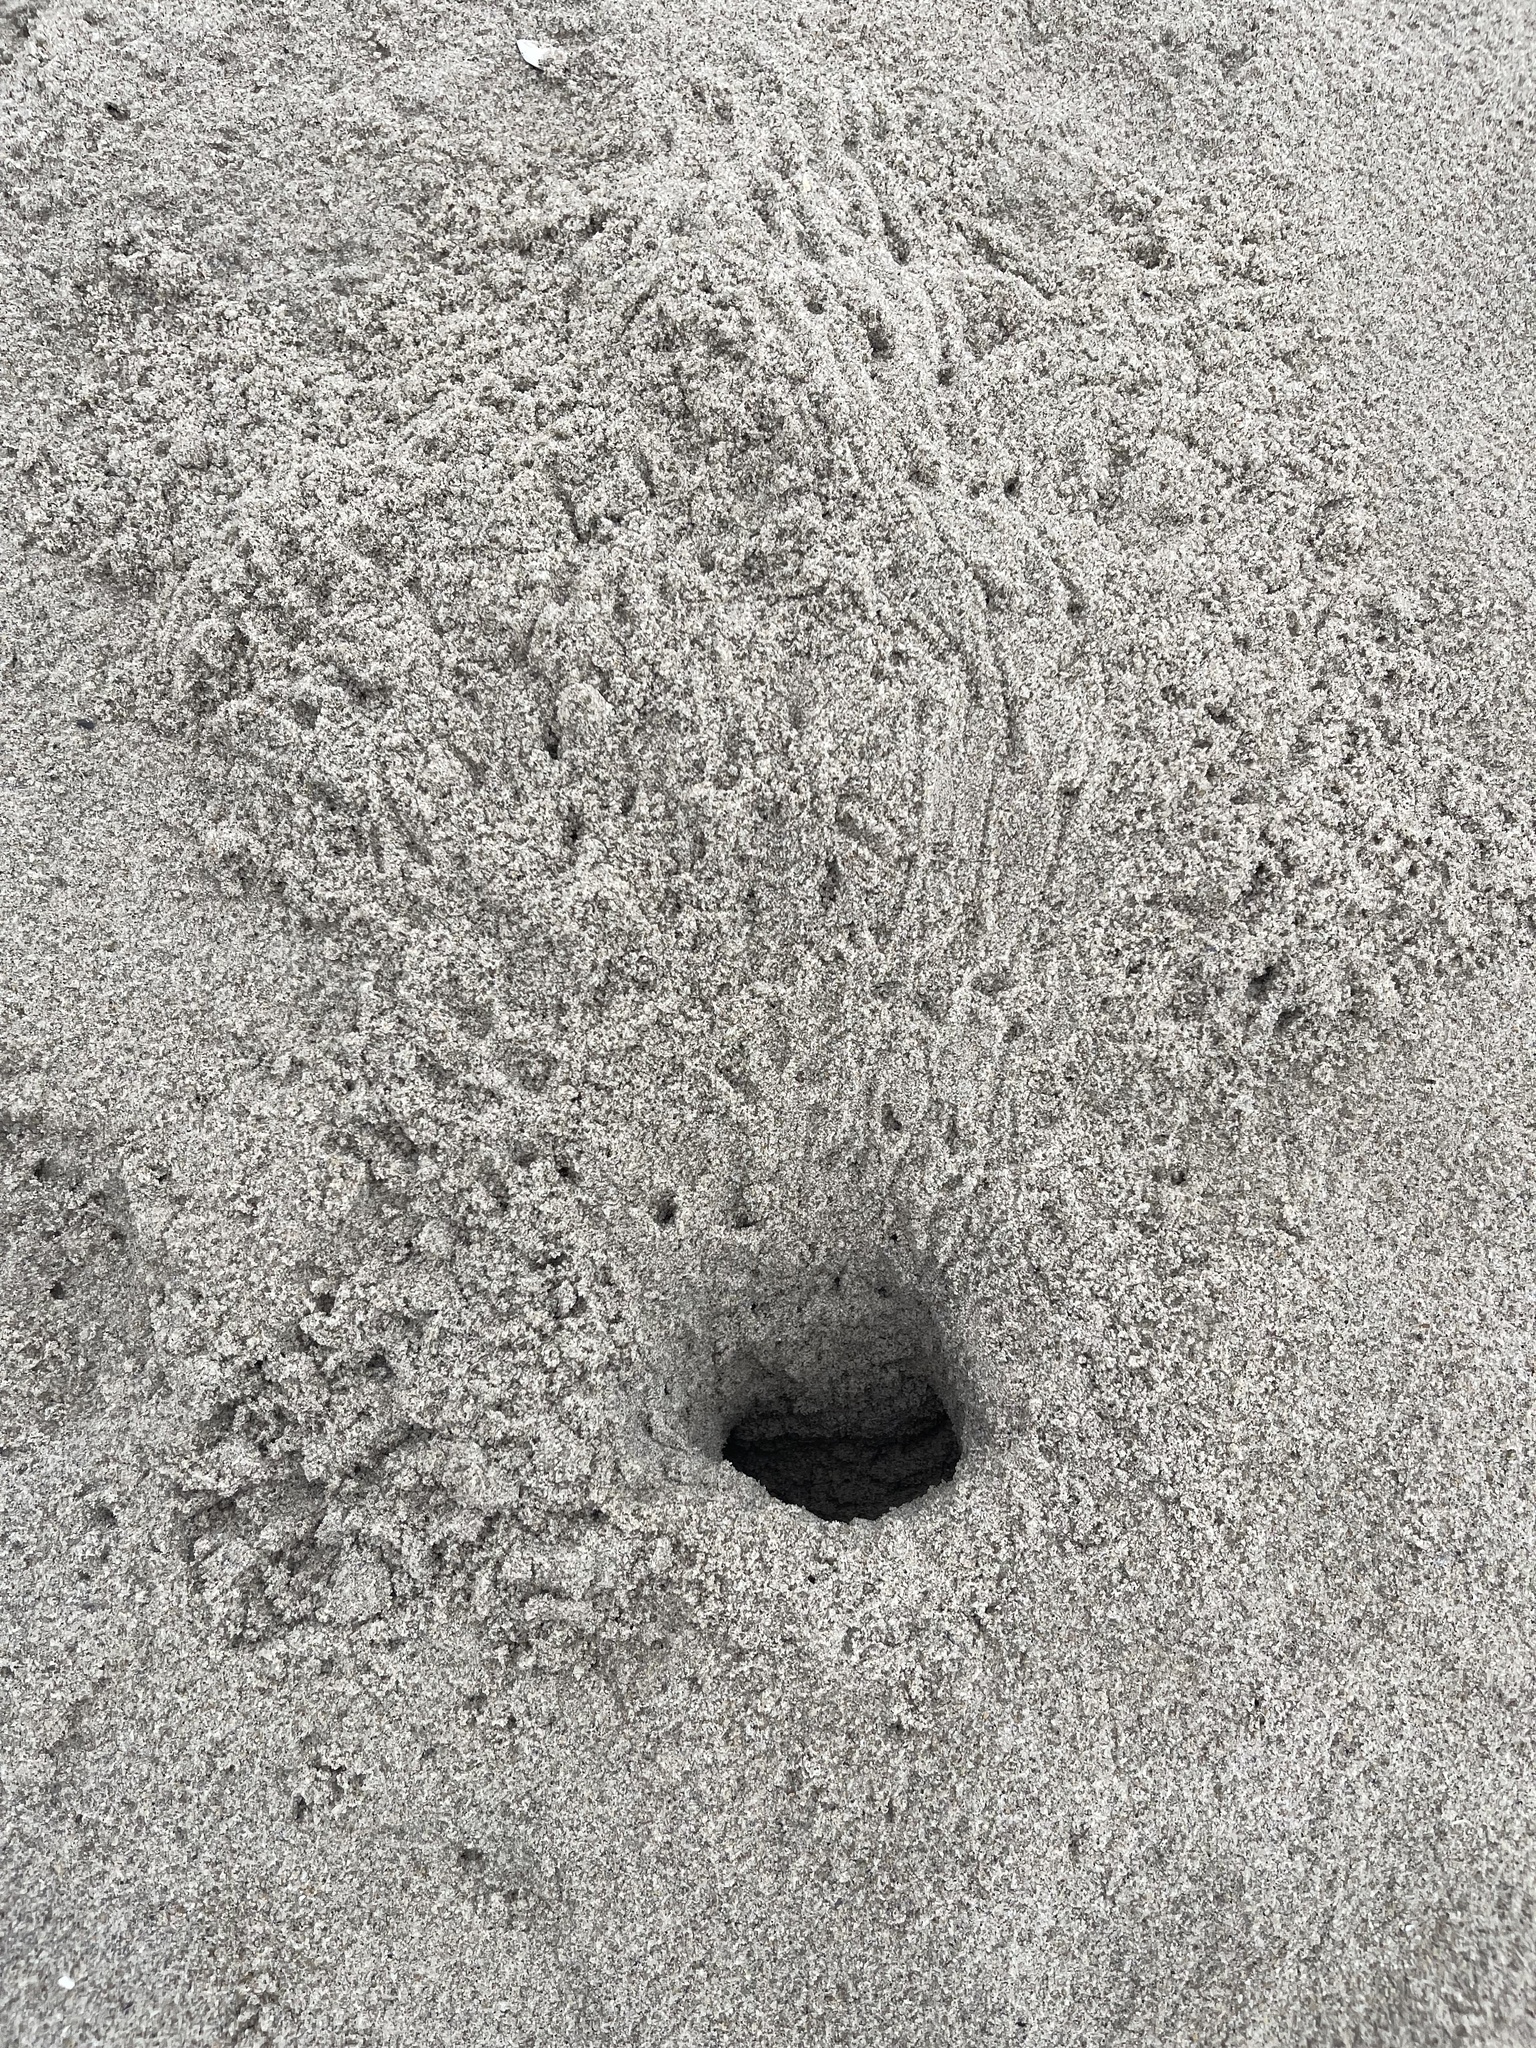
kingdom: Animalia
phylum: Arthropoda
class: Malacostraca
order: Decapoda
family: Ocypodidae
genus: Ocypode
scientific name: Ocypode quadrata
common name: Ghost crab
